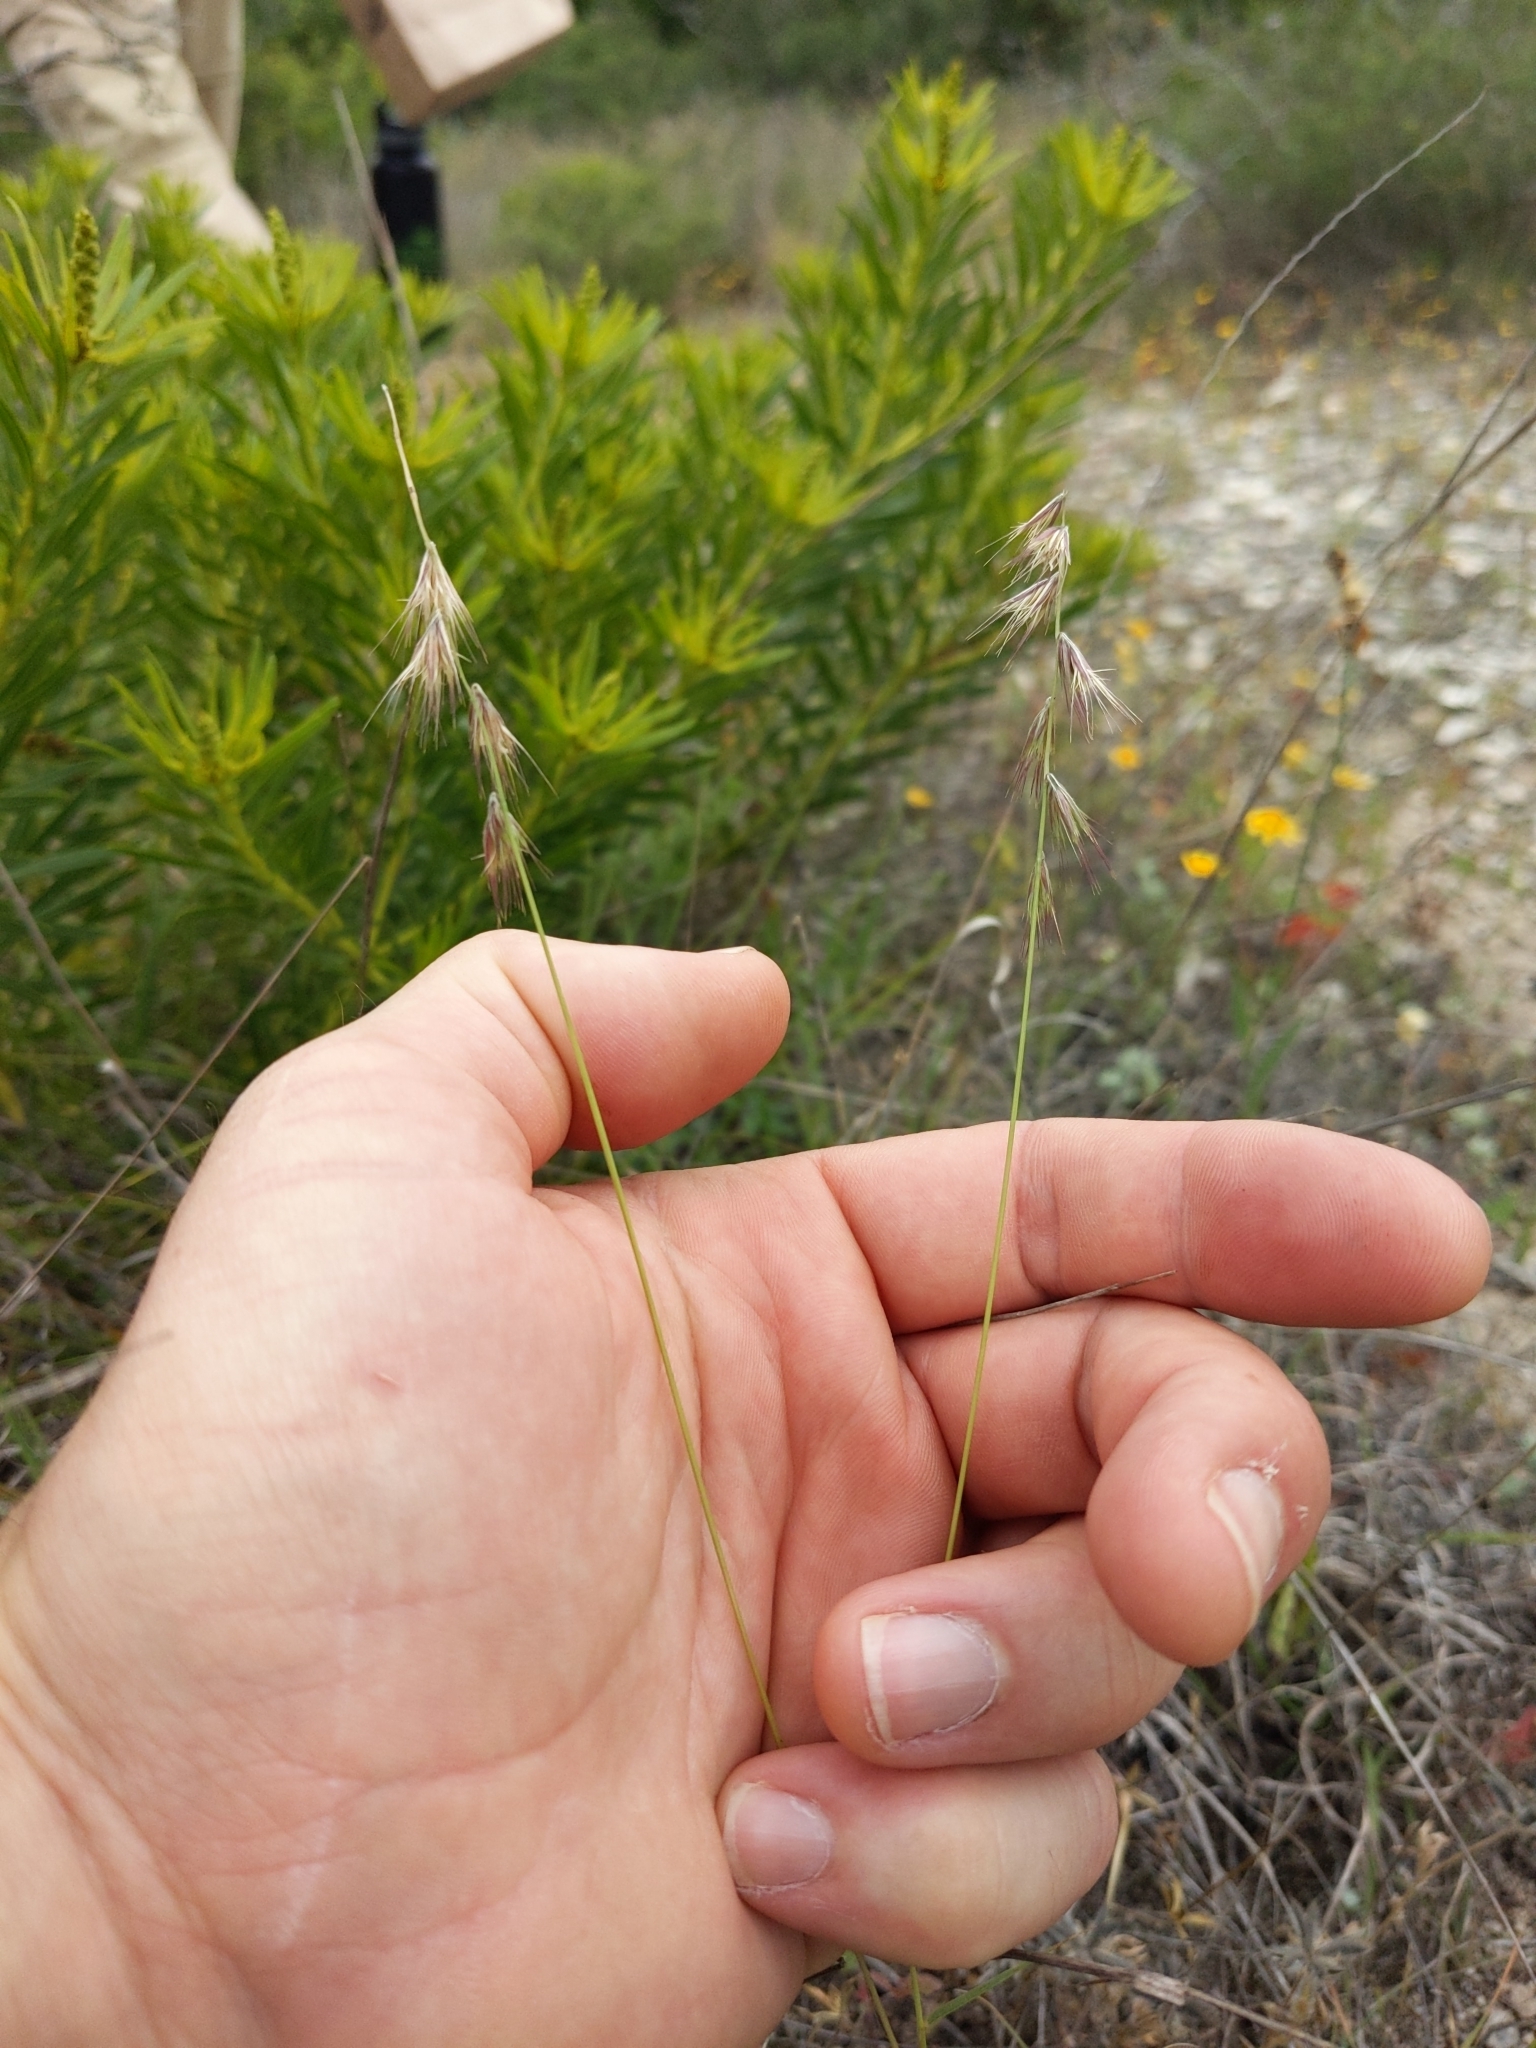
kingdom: Plantae
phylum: Tracheophyta
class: Liliopsida
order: Poales
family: Poaceae
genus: Bouteloua
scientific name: Bouteloua rigidiseta
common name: Texas grama
